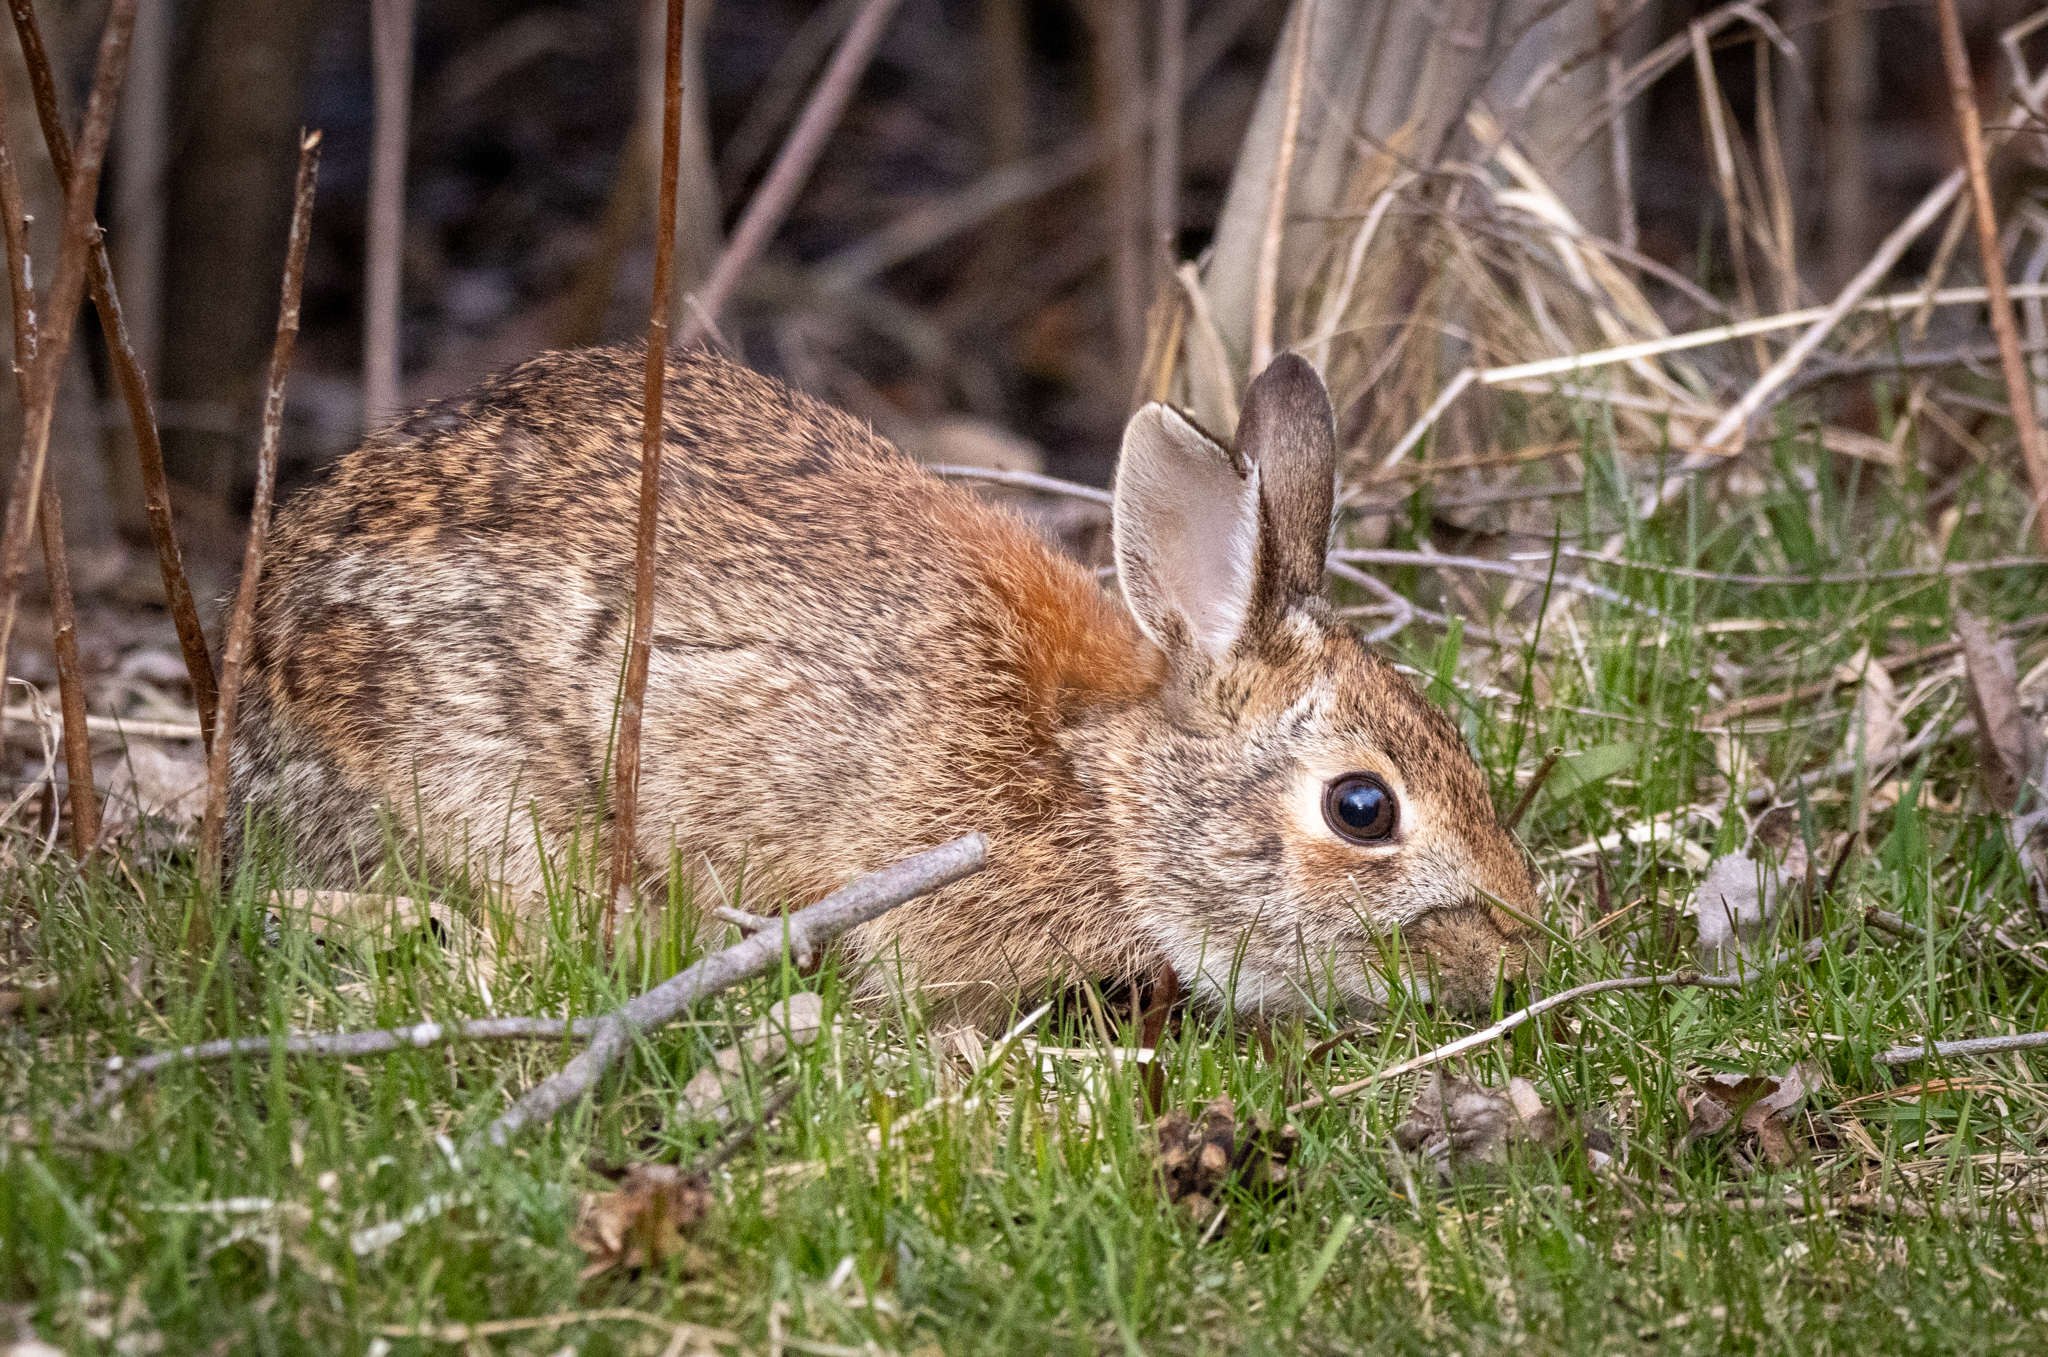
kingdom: Animalia
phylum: Chordata
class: Mammalia
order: Lagomorpha
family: Leporidae
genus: Sylvilagus
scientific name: Sylvilagus floridanus
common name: Eastern cottontail
